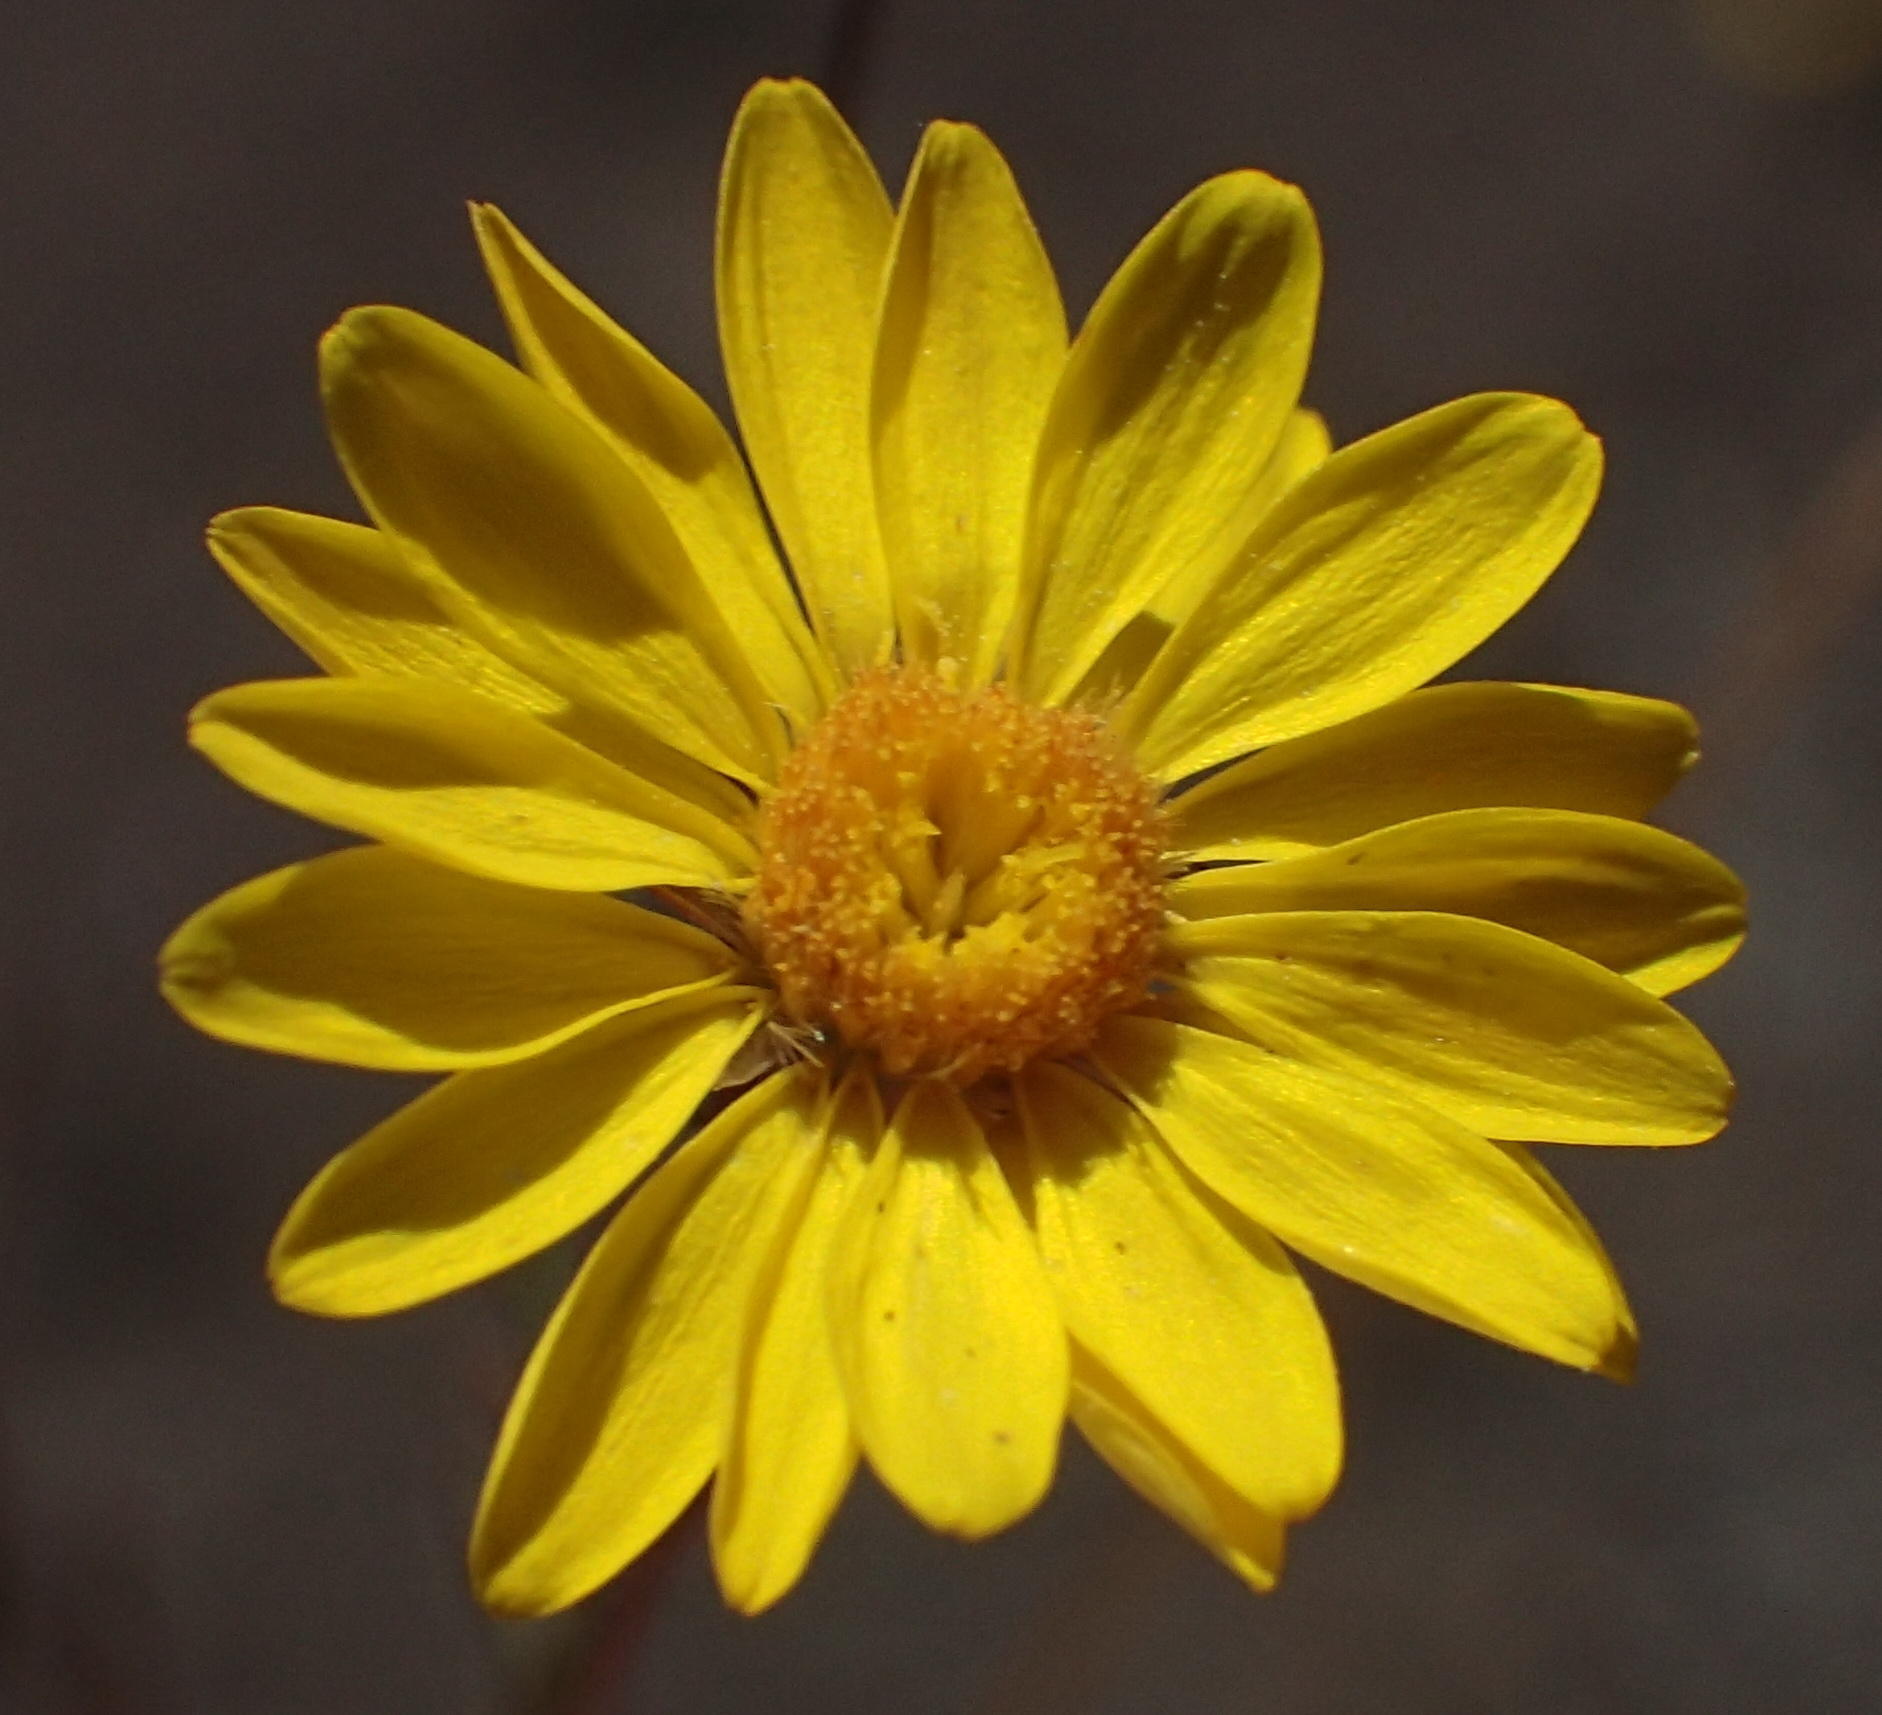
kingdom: Plantae
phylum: Tracheophyta
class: Magnoliopsida
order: Asterales
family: Asteraceae
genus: Leysera
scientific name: Leysera gnaphalodes
